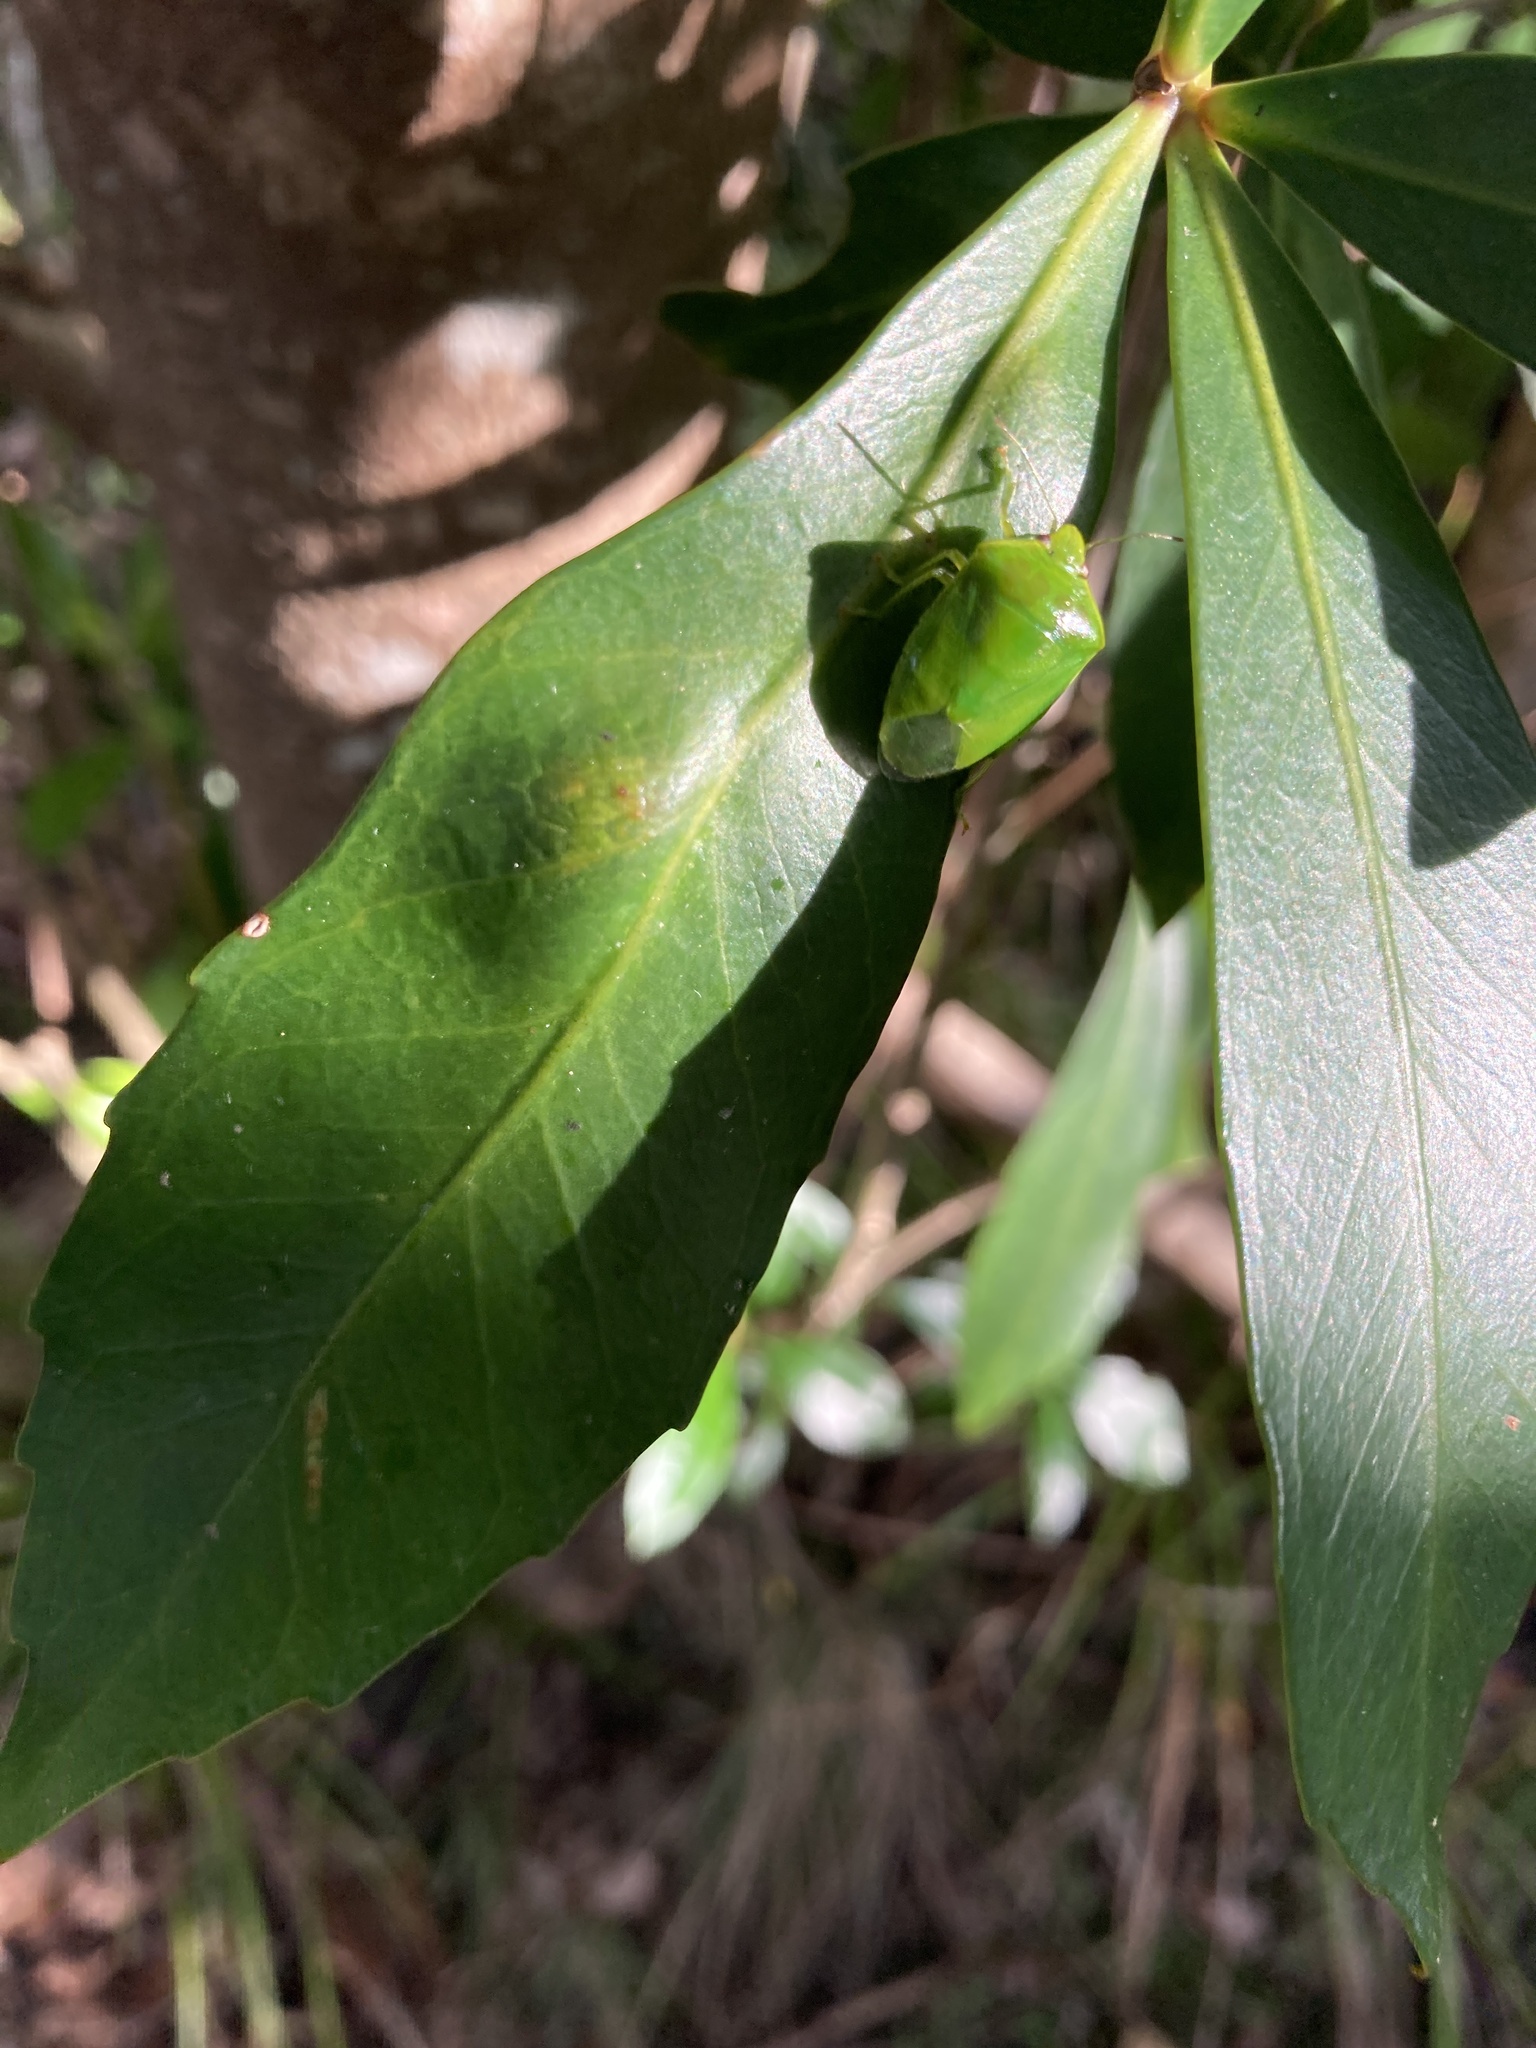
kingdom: Animalia
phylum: Arthropoda
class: Insecta
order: Hemiptera
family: Pentatomidae
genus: Glaucias
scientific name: Glaucias amyota
